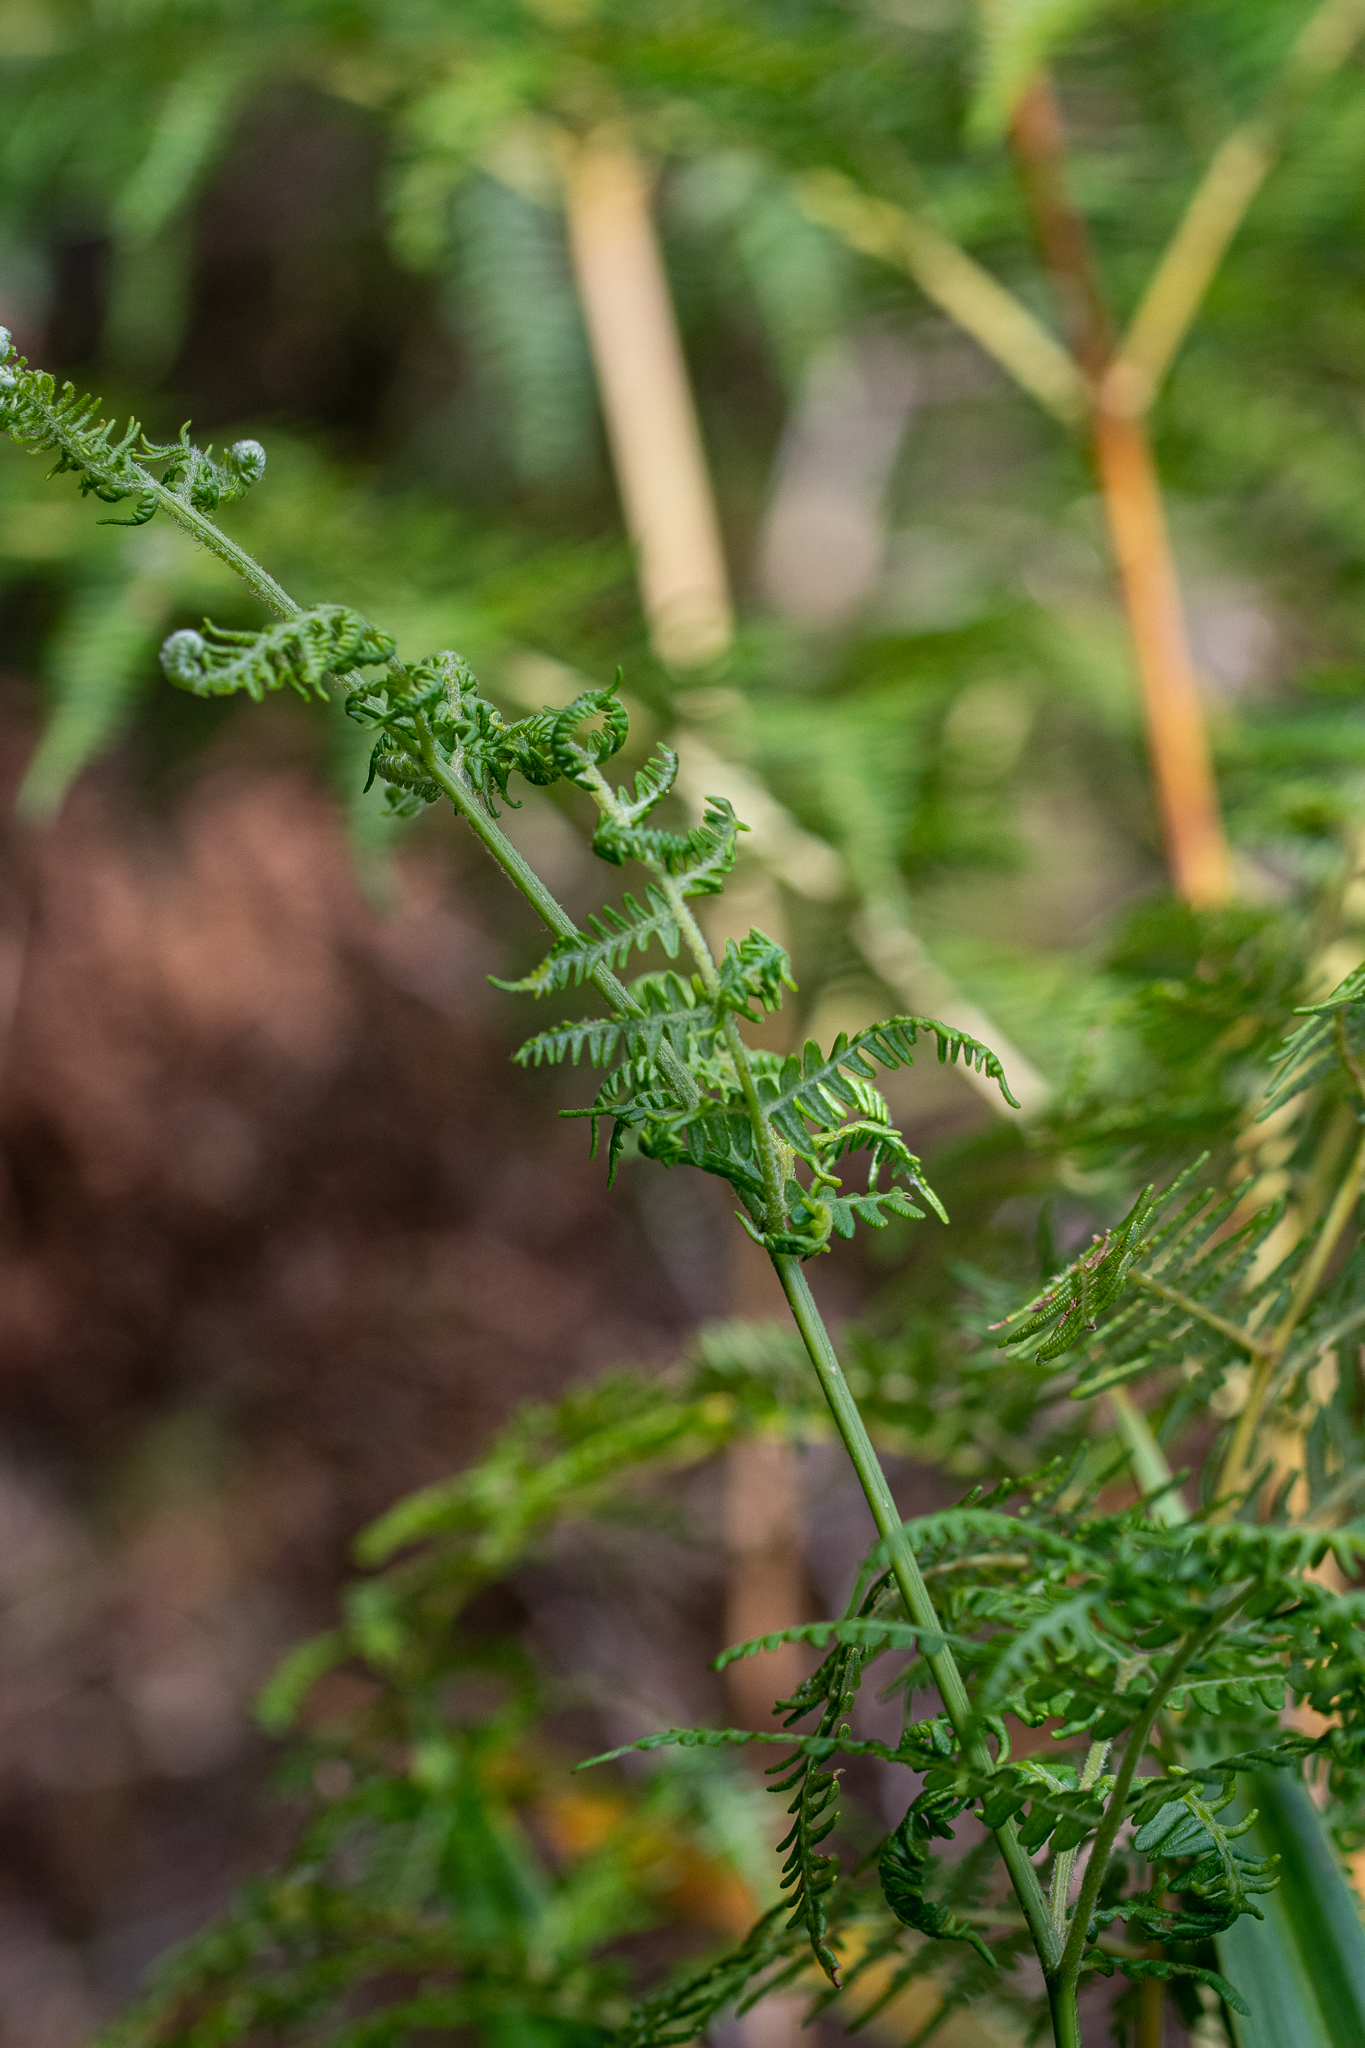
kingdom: Plantae
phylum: Tracheophyta
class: Polypodiopsida
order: Polypodiales
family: Dennstaedtiaceae
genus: Pteridium
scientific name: Pteridium aquilinum
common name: Bracken
